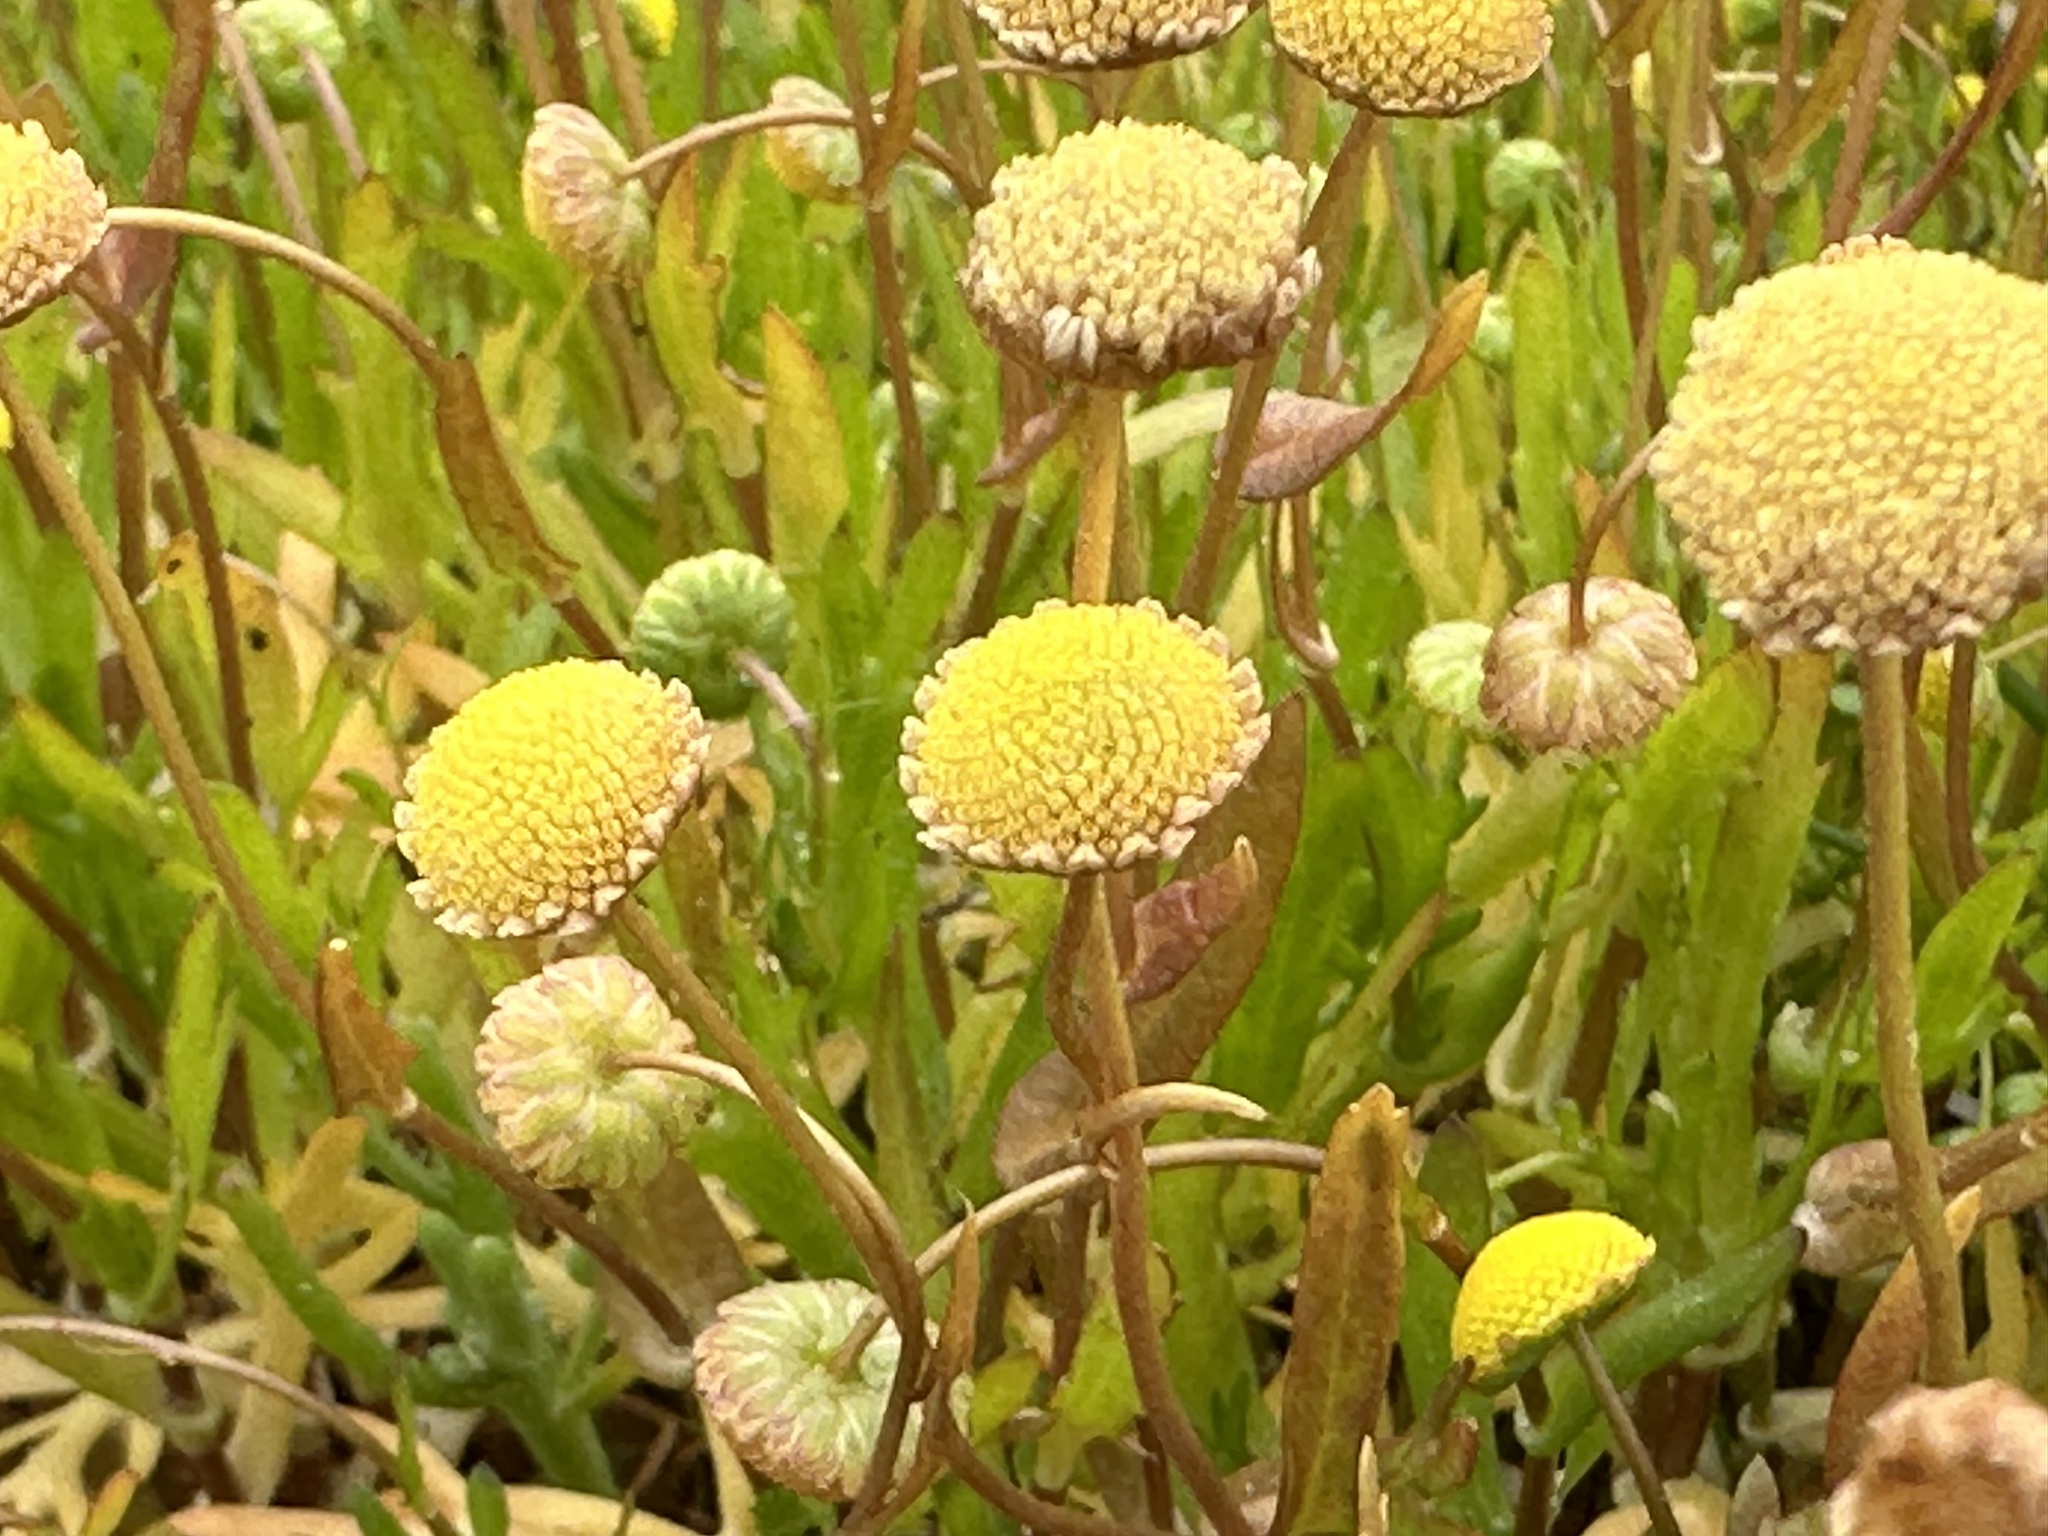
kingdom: Plantae
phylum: Tracheophyta
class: Magnoliopsida
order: Asterales
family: Asteraceae
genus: Cotula
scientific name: Cotula coronopifolia
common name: Buttonweed
